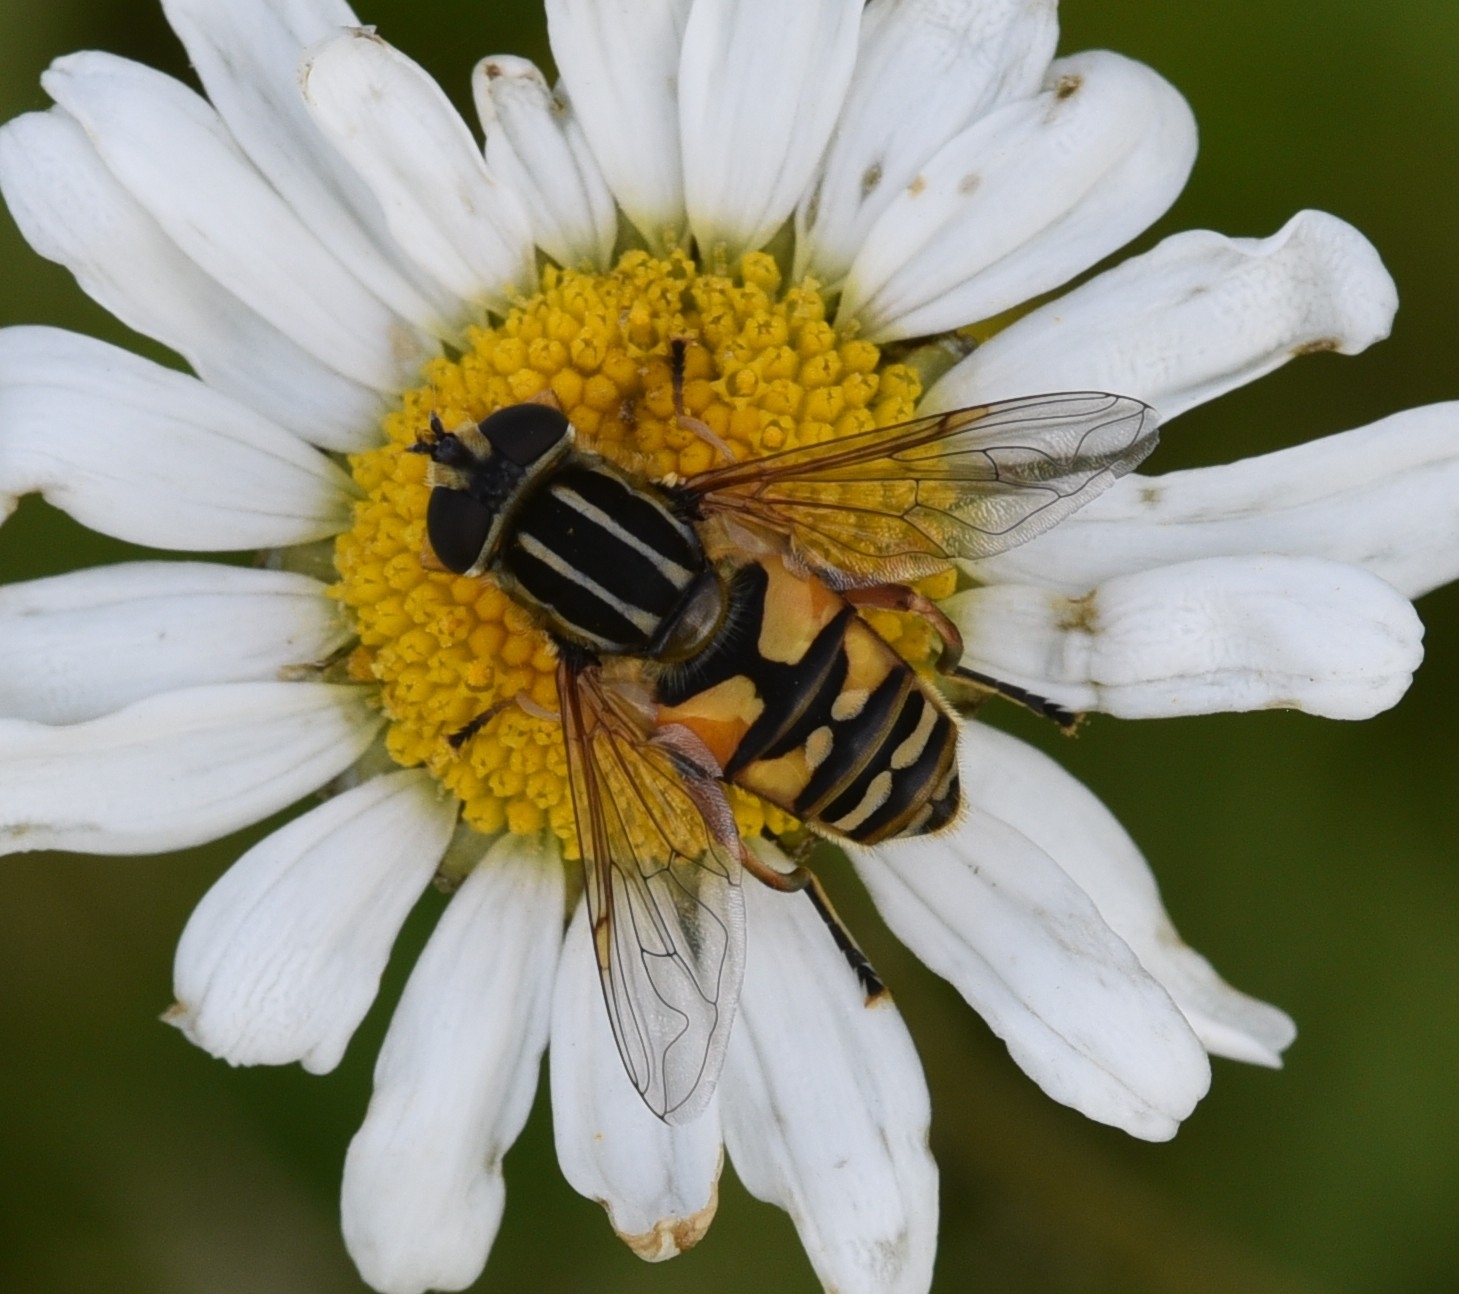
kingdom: Animalia
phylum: Arthropoda
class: Insecta
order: Diptera
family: Syrphidae
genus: Helophilus
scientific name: Helophilus pendulus
